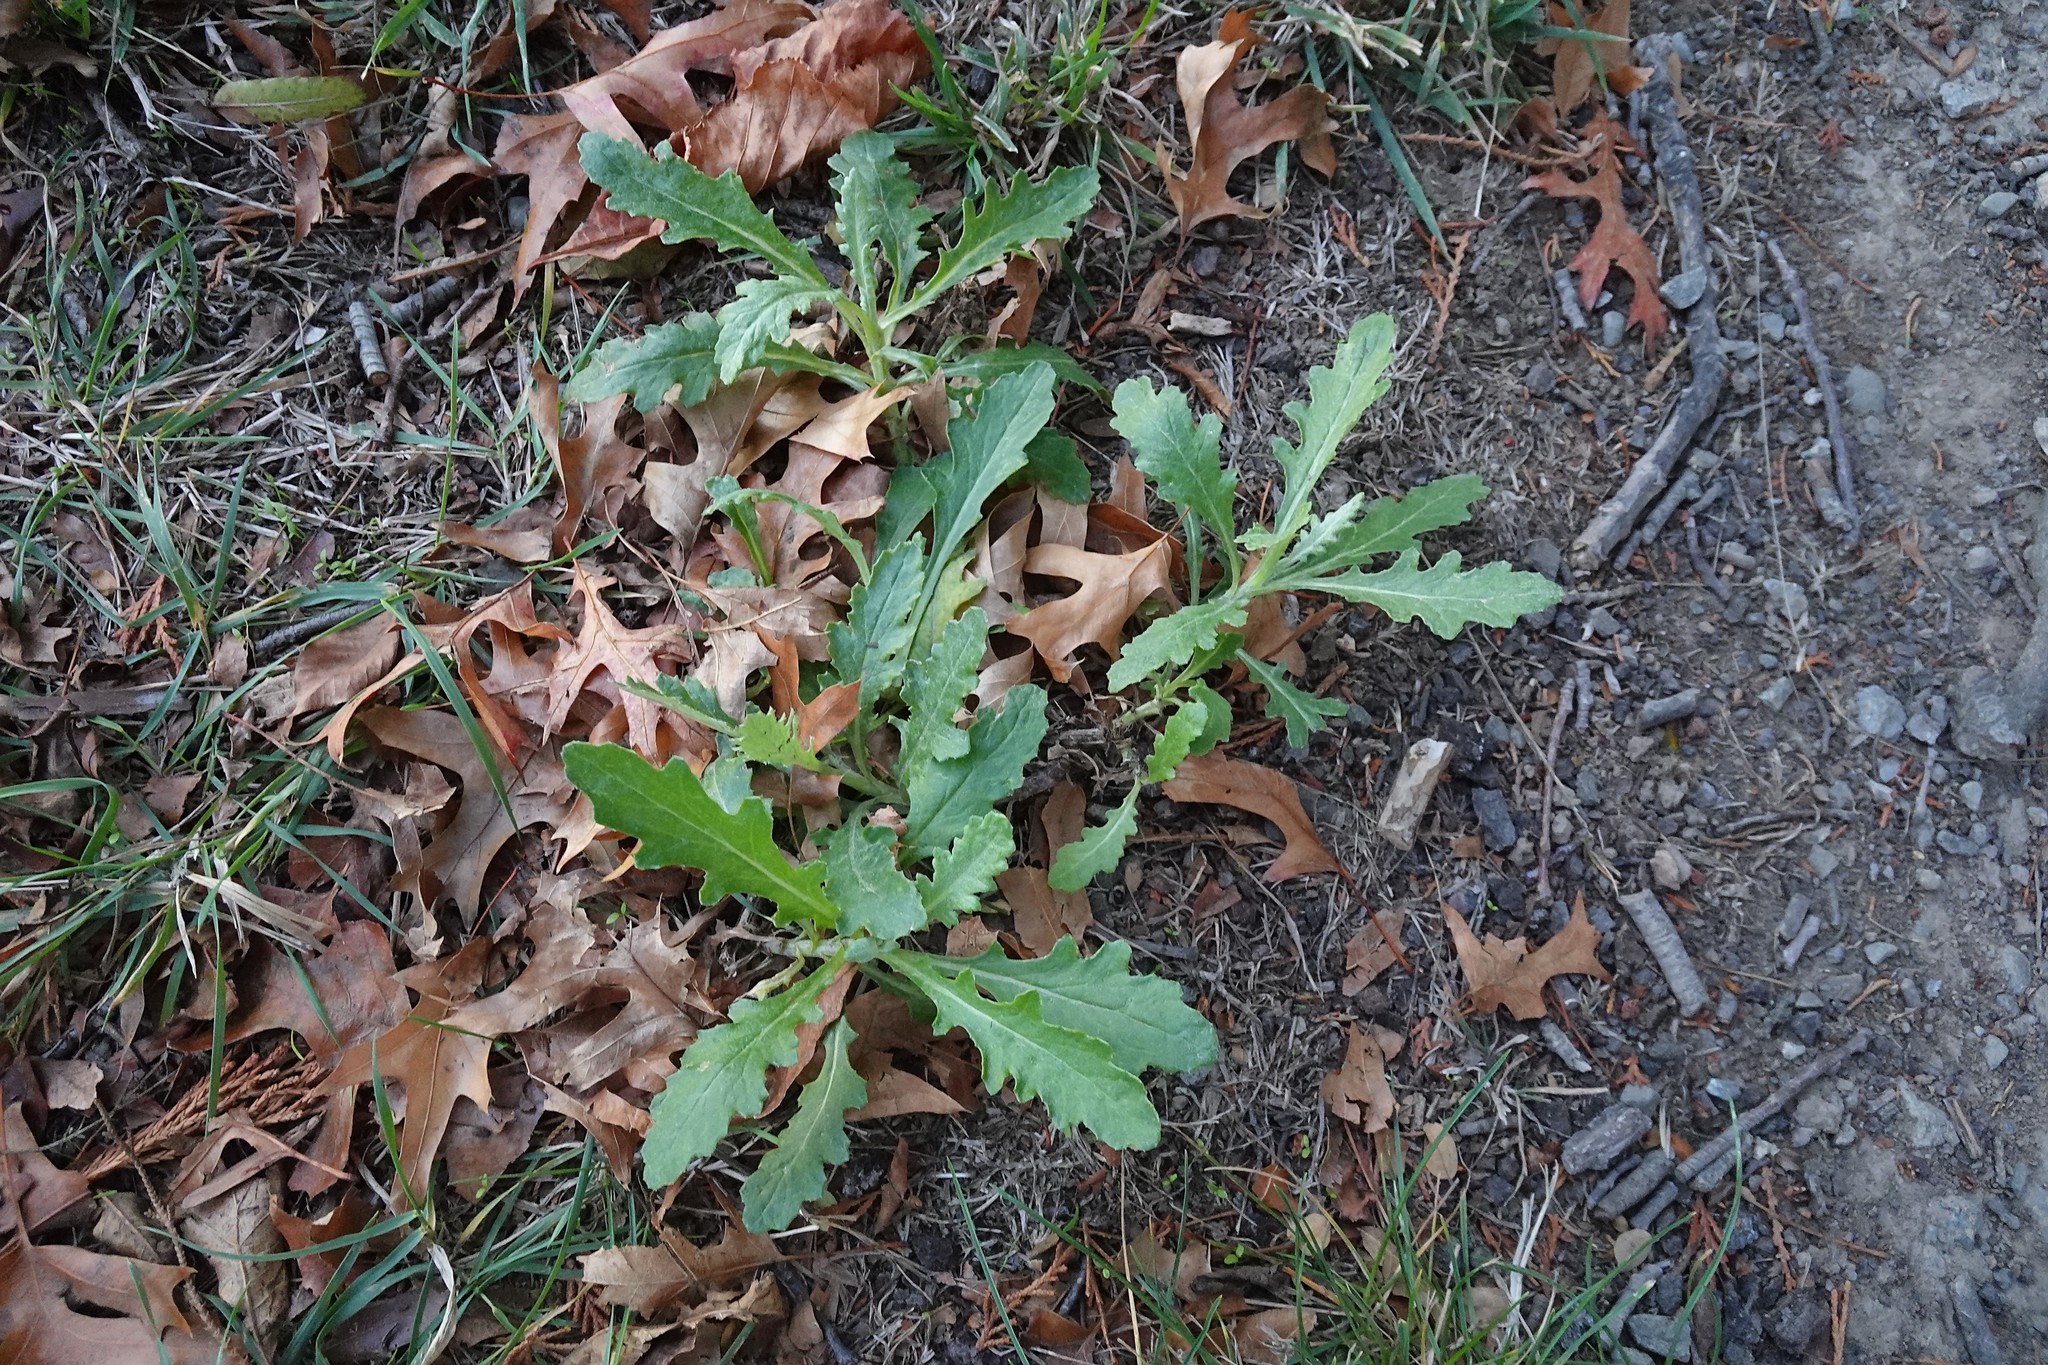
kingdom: Plantae
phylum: Tracheophyta
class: Magnoliopsida
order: Asterales
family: Asteraceae
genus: Senecio
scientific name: Senecio glomeratus
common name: Cutleaf burnweed
